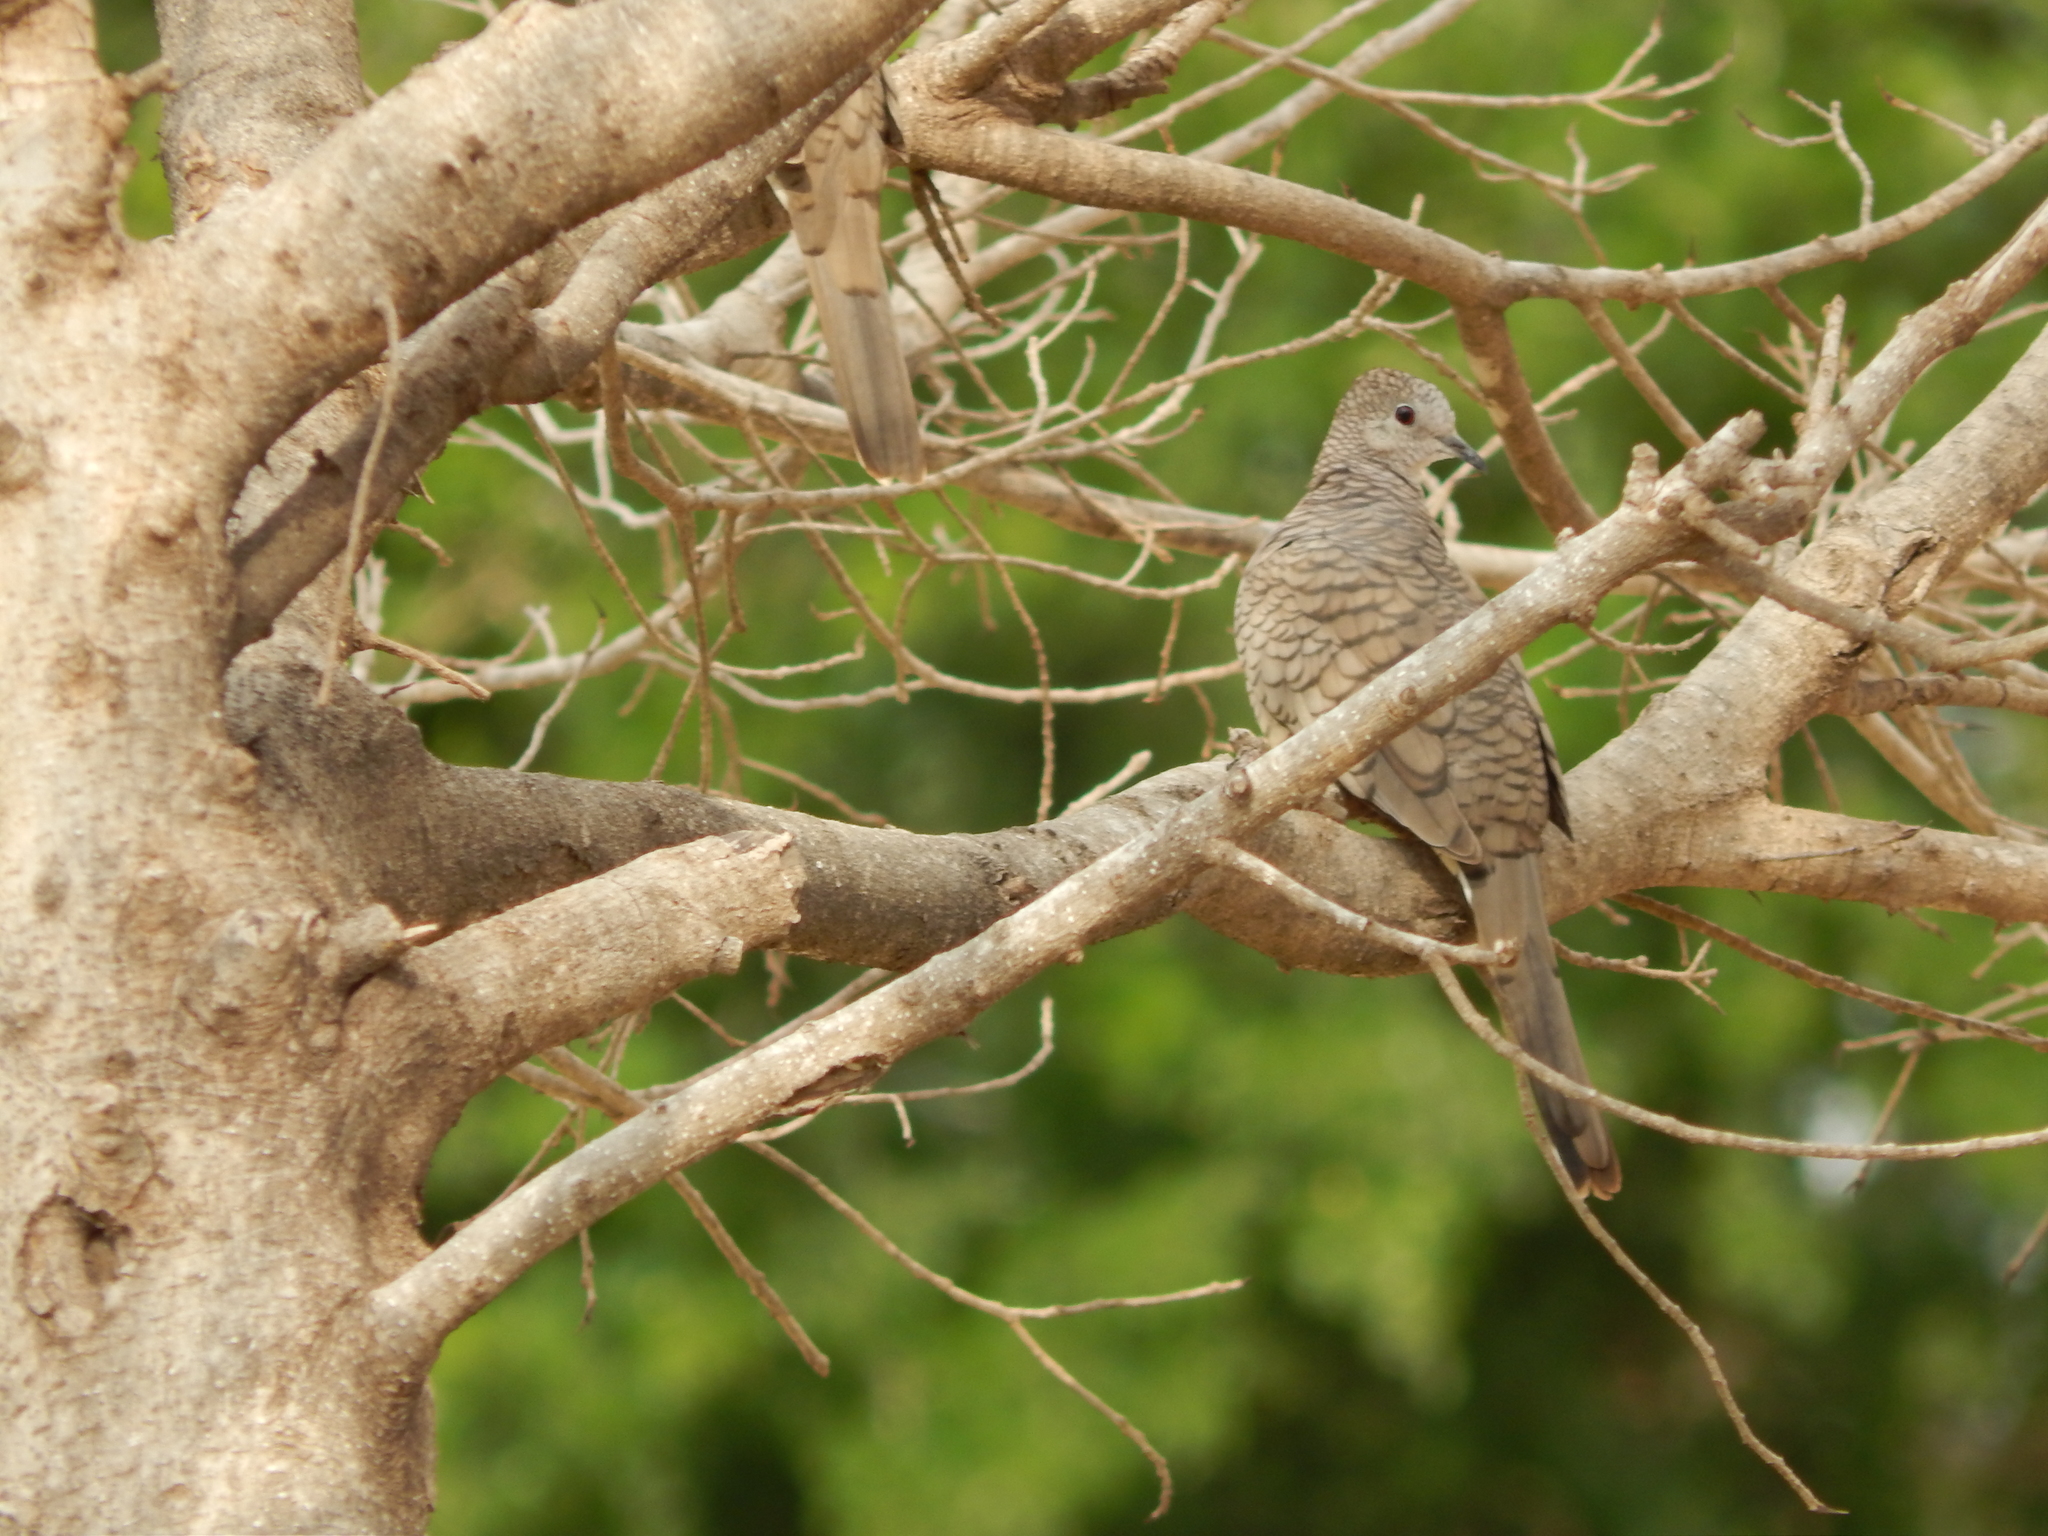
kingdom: Animalia
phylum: Chordata
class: Aves
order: Columbiformes
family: Columbidae
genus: Columbina
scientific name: Columbina inca
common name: Inca dove
